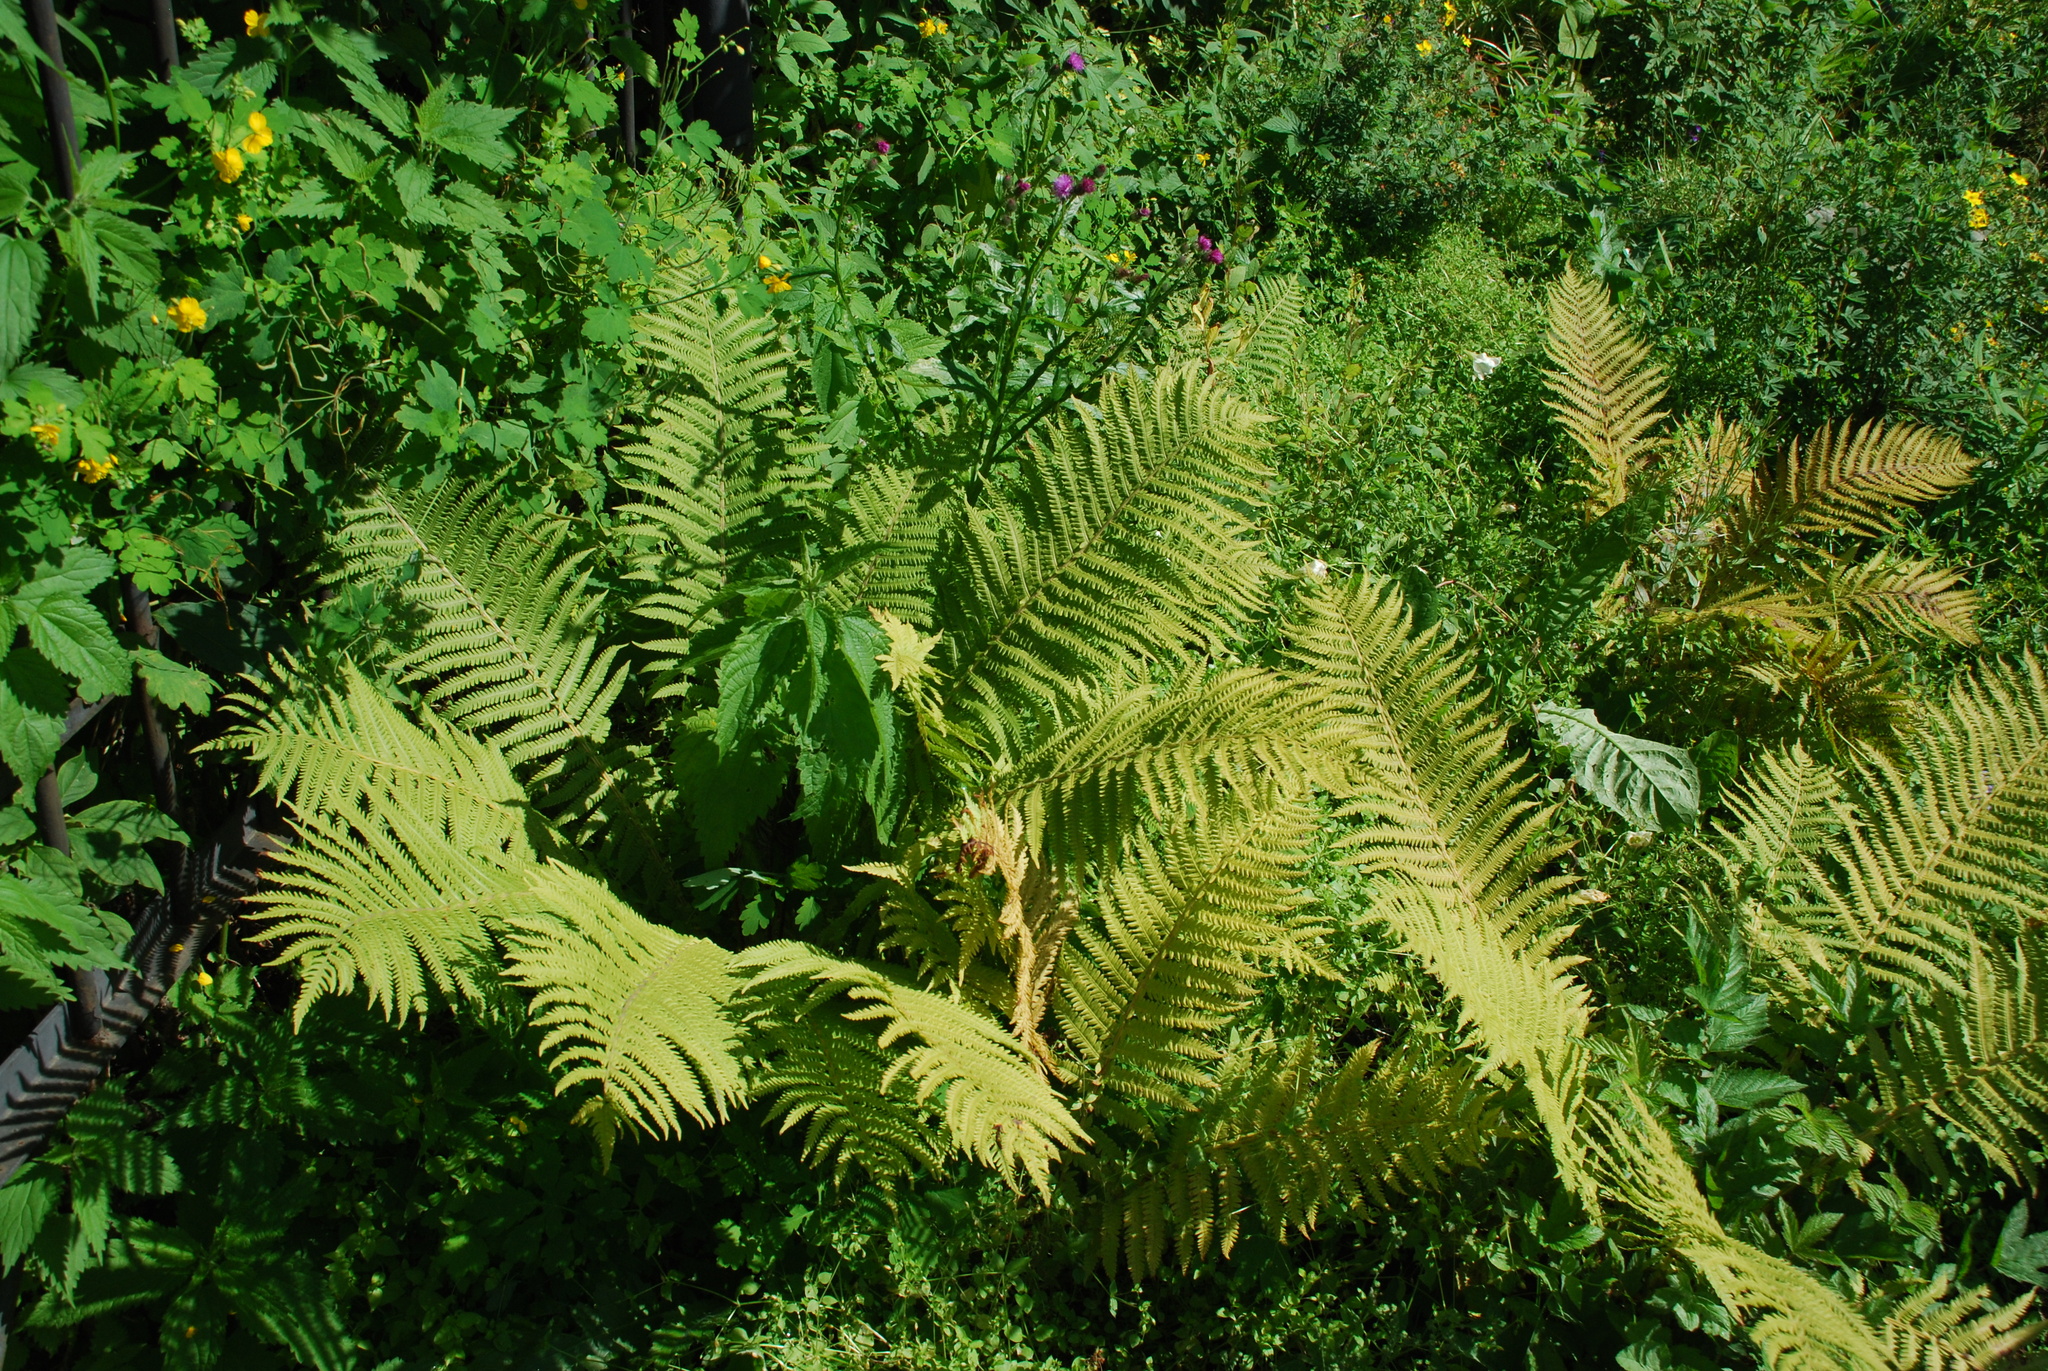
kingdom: Plantae
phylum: Tracheophyta
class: Polypodiopsida
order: Polypodiales
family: Onocleaceae
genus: Matteuccia
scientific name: Matteuccia struthiopteris
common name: Ostrich fern
